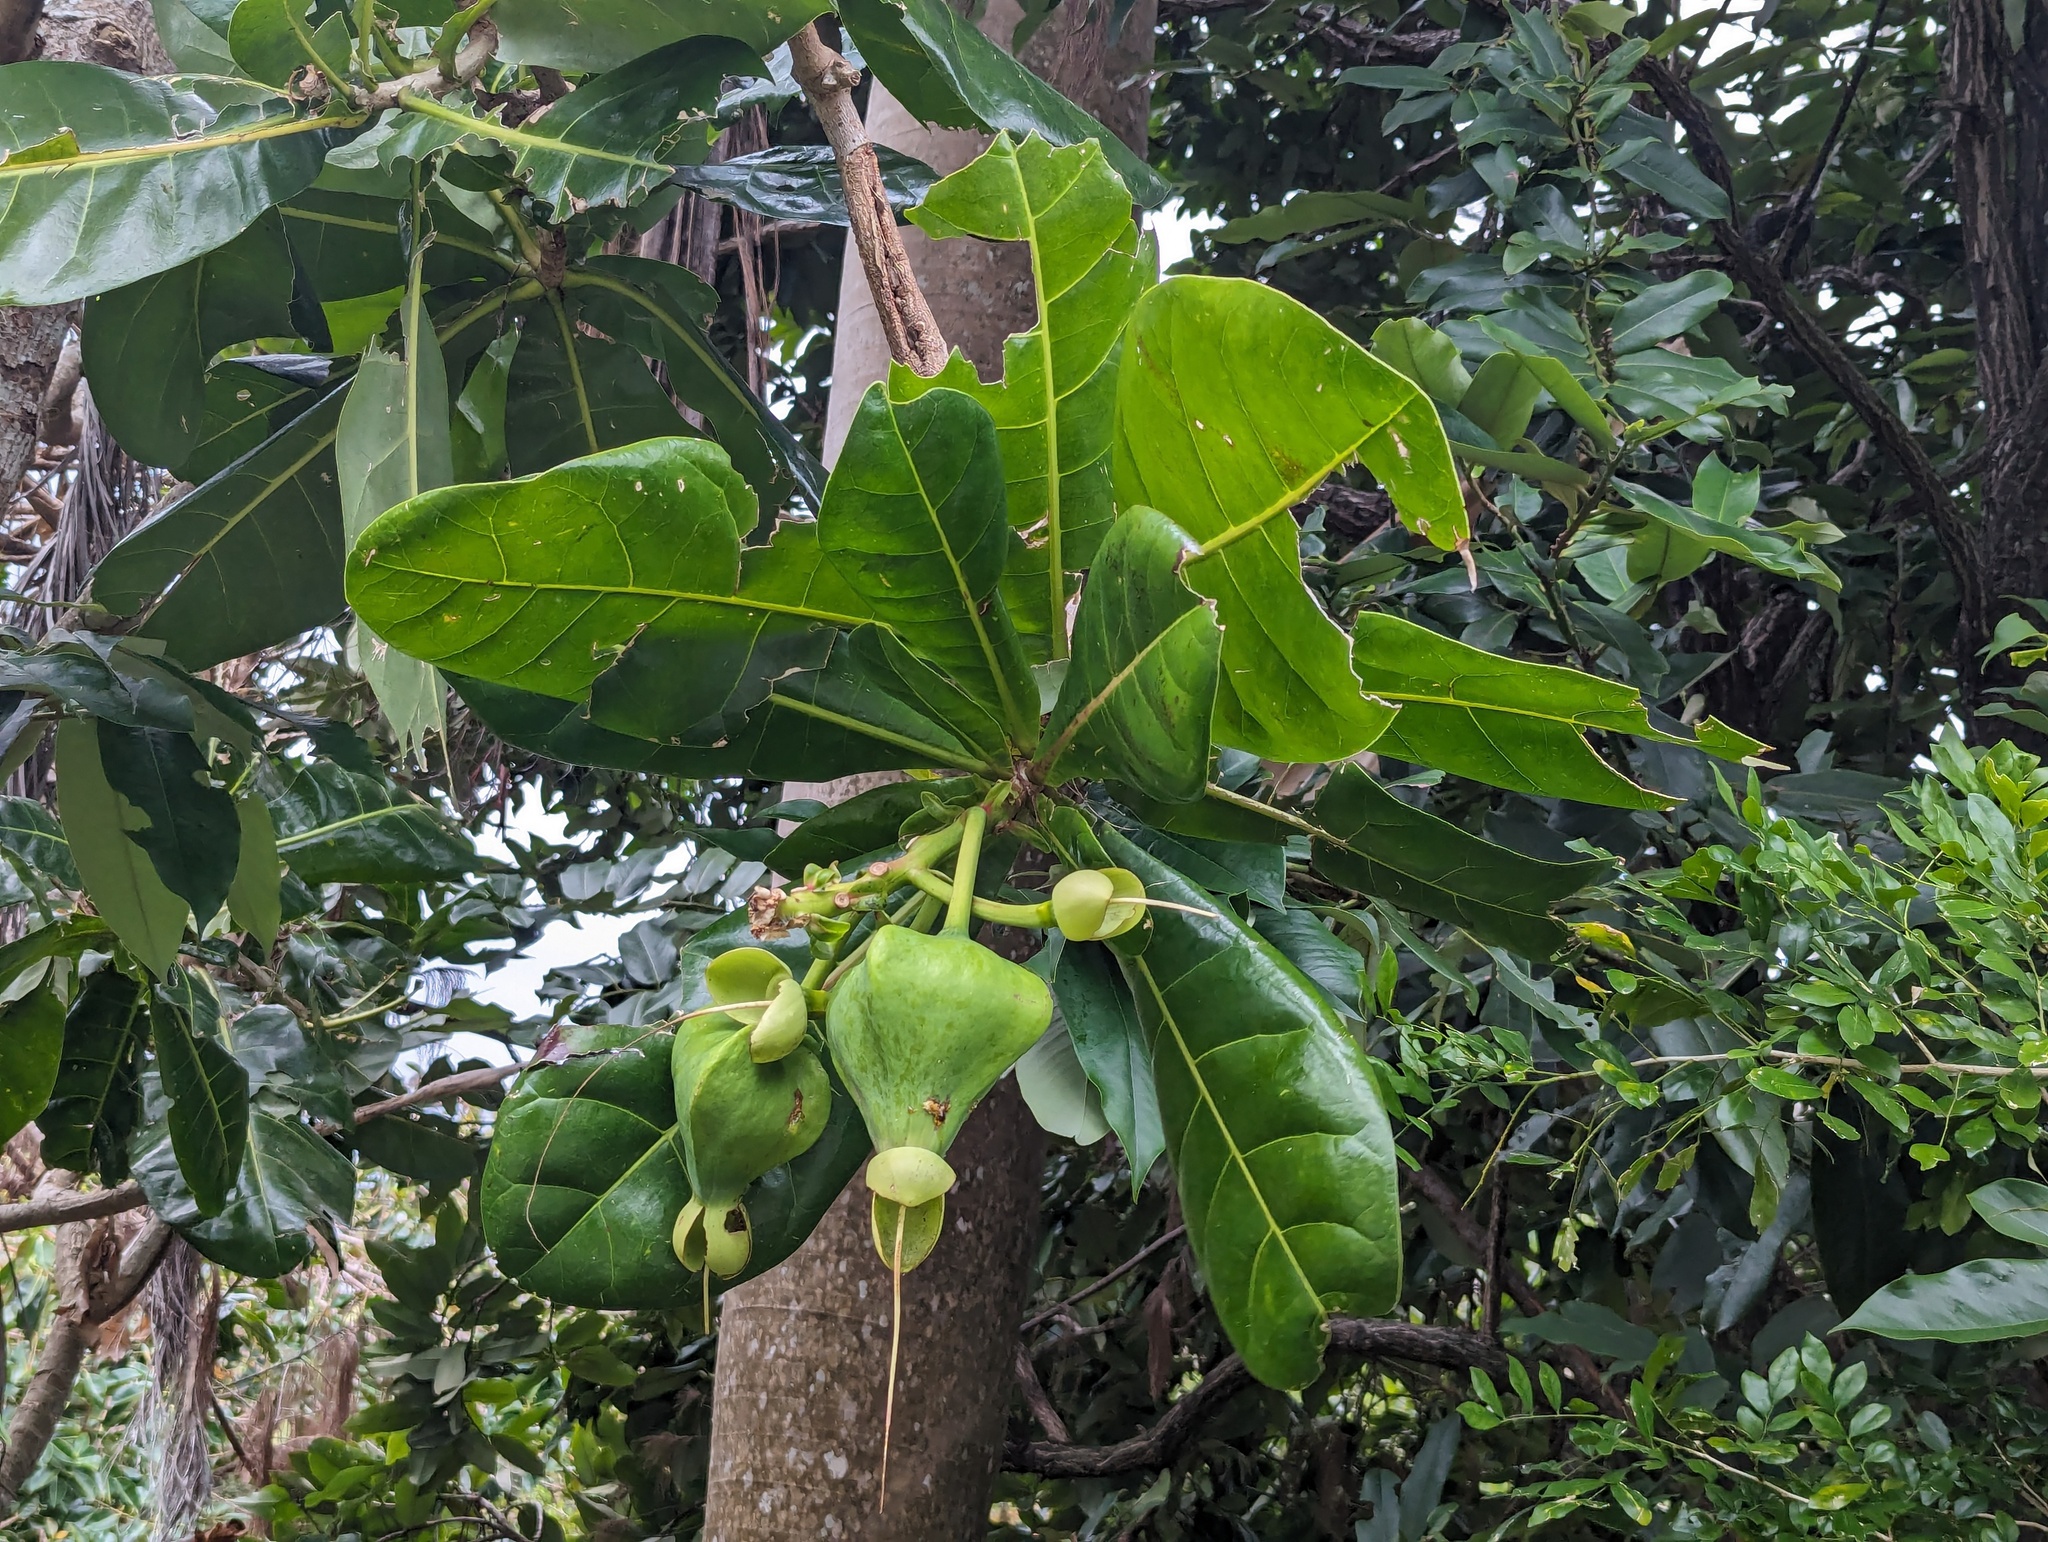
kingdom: Plantae
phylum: Tracheophyta
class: Magnoliopsida
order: Ericales
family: Lecythidaceae
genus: Barringtonia
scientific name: Barringtonia asiatica
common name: Mango-pine
